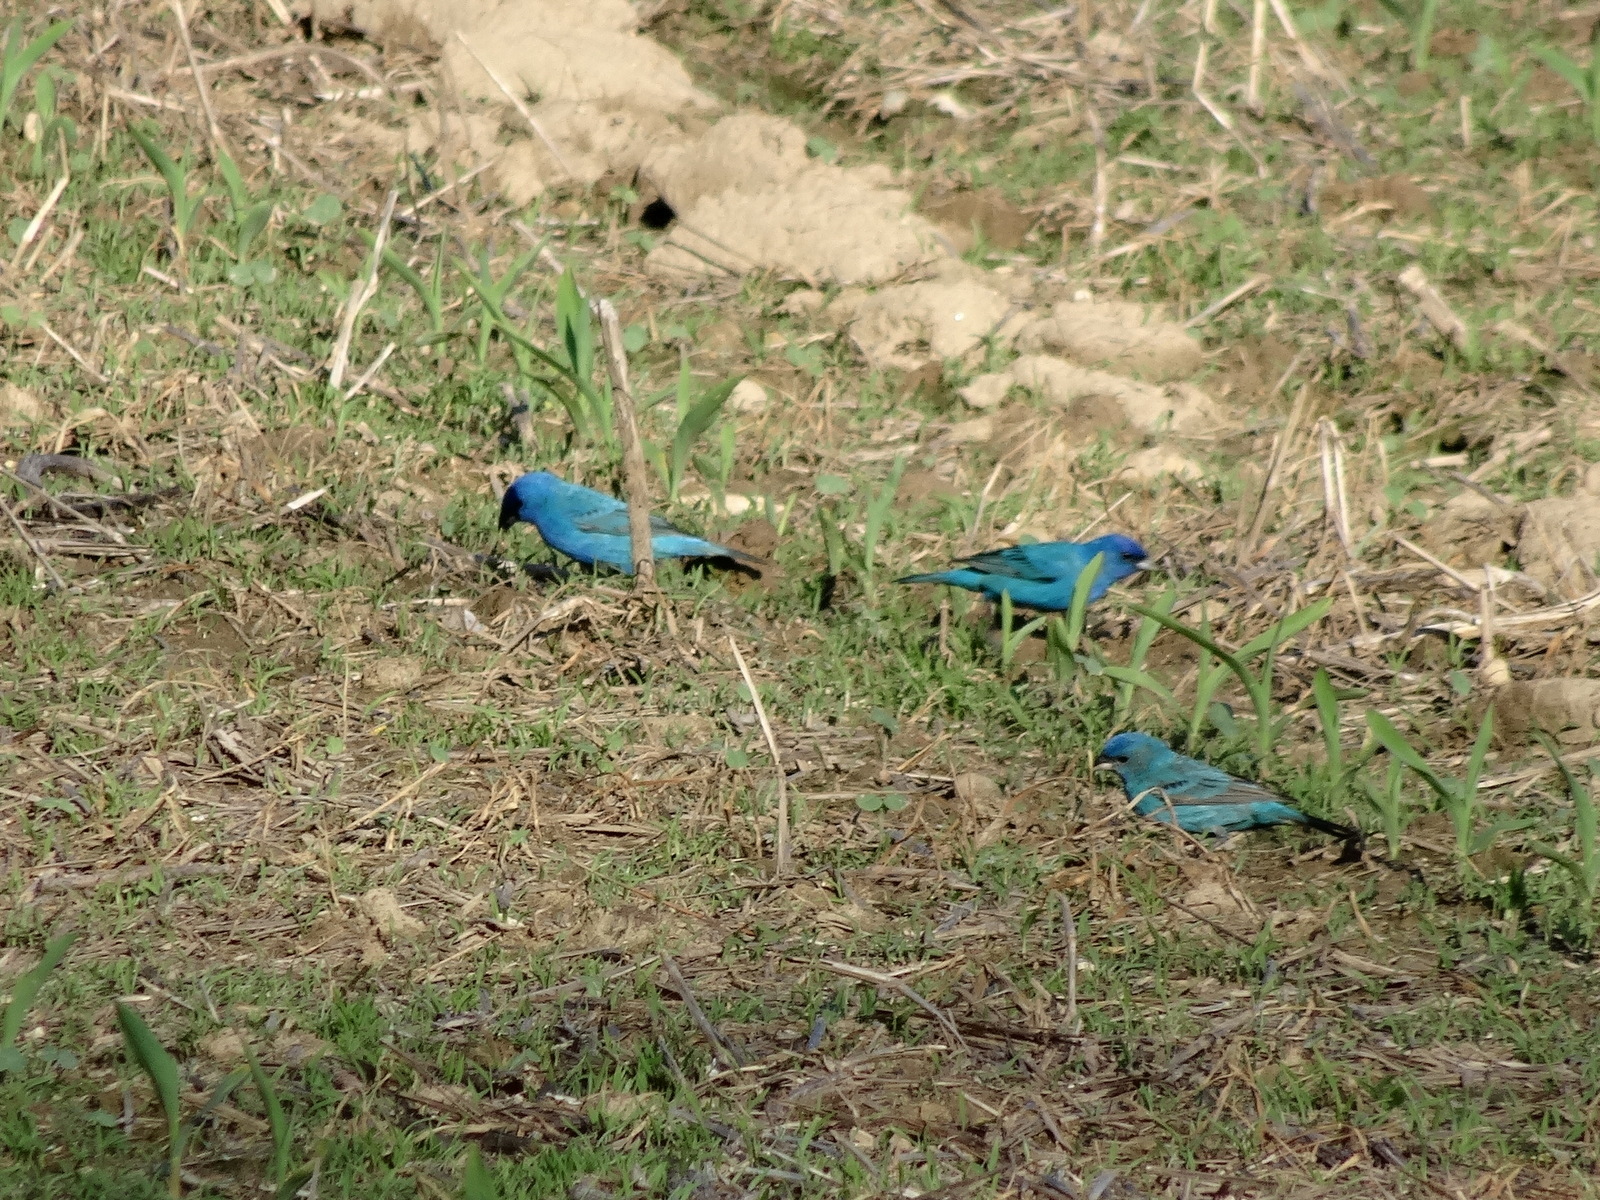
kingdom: Animalia
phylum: Chordata
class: Aves
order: Passeriformes
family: Cardinalidae
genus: Passerina
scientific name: Passerina cyanea
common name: Indigo bunting
